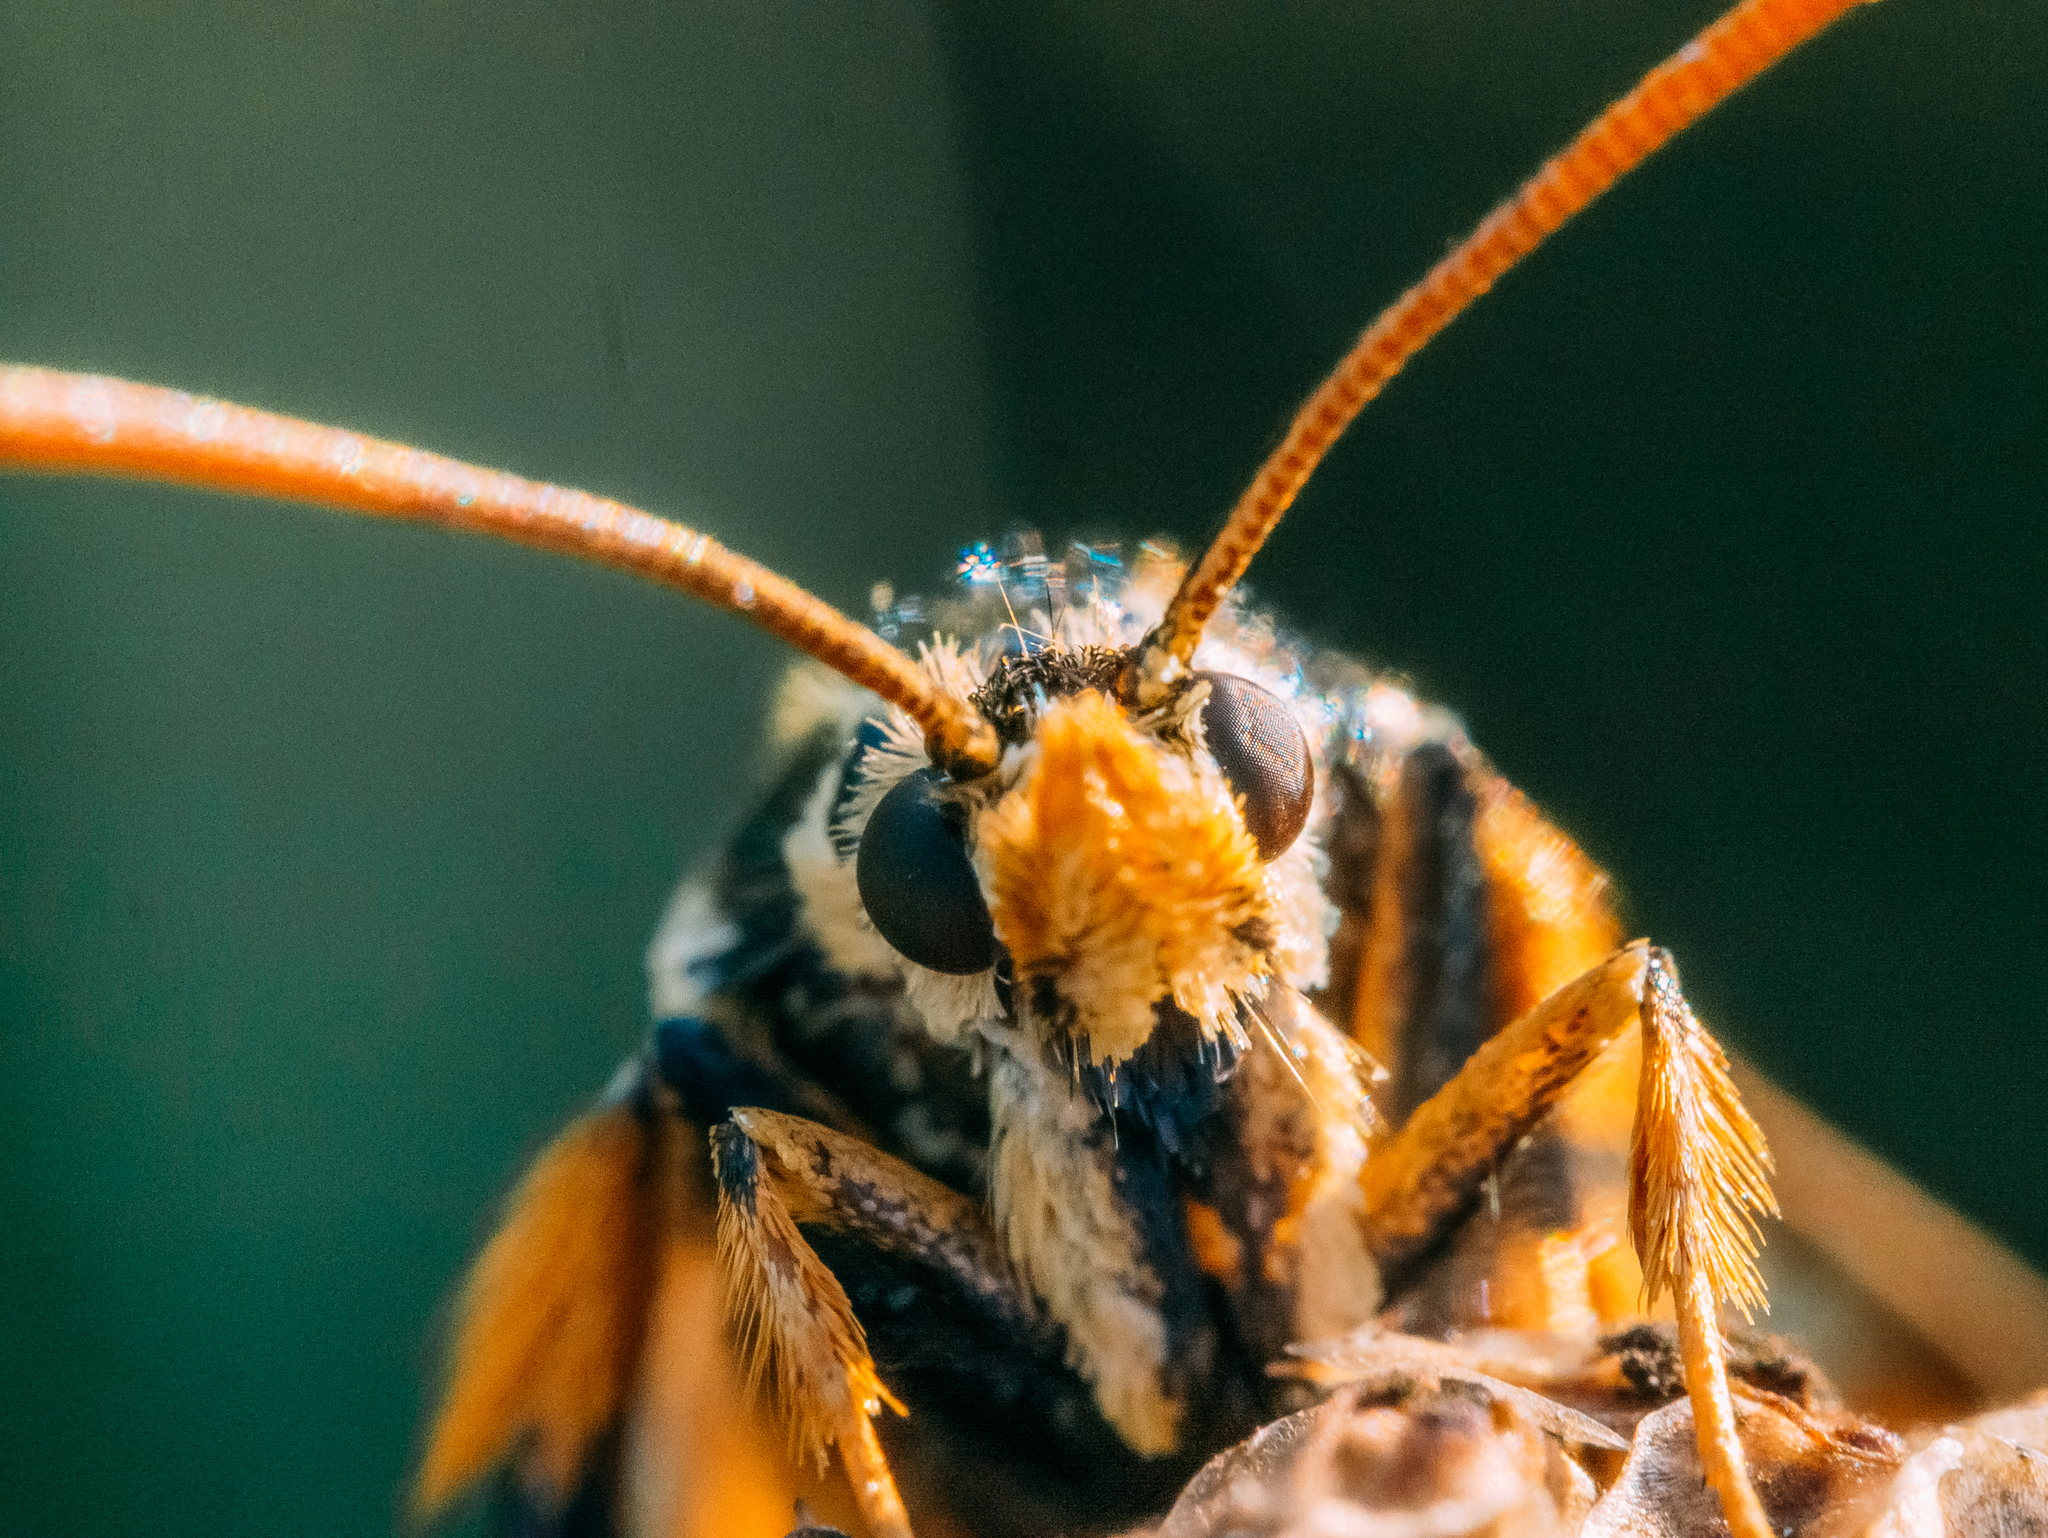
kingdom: Animalia
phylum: Arthropoda
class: Insecta
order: Lepidoptera
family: Sesiidae
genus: Bembecia
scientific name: Bembecia ichneumoniformis
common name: Six-belted clearwing
